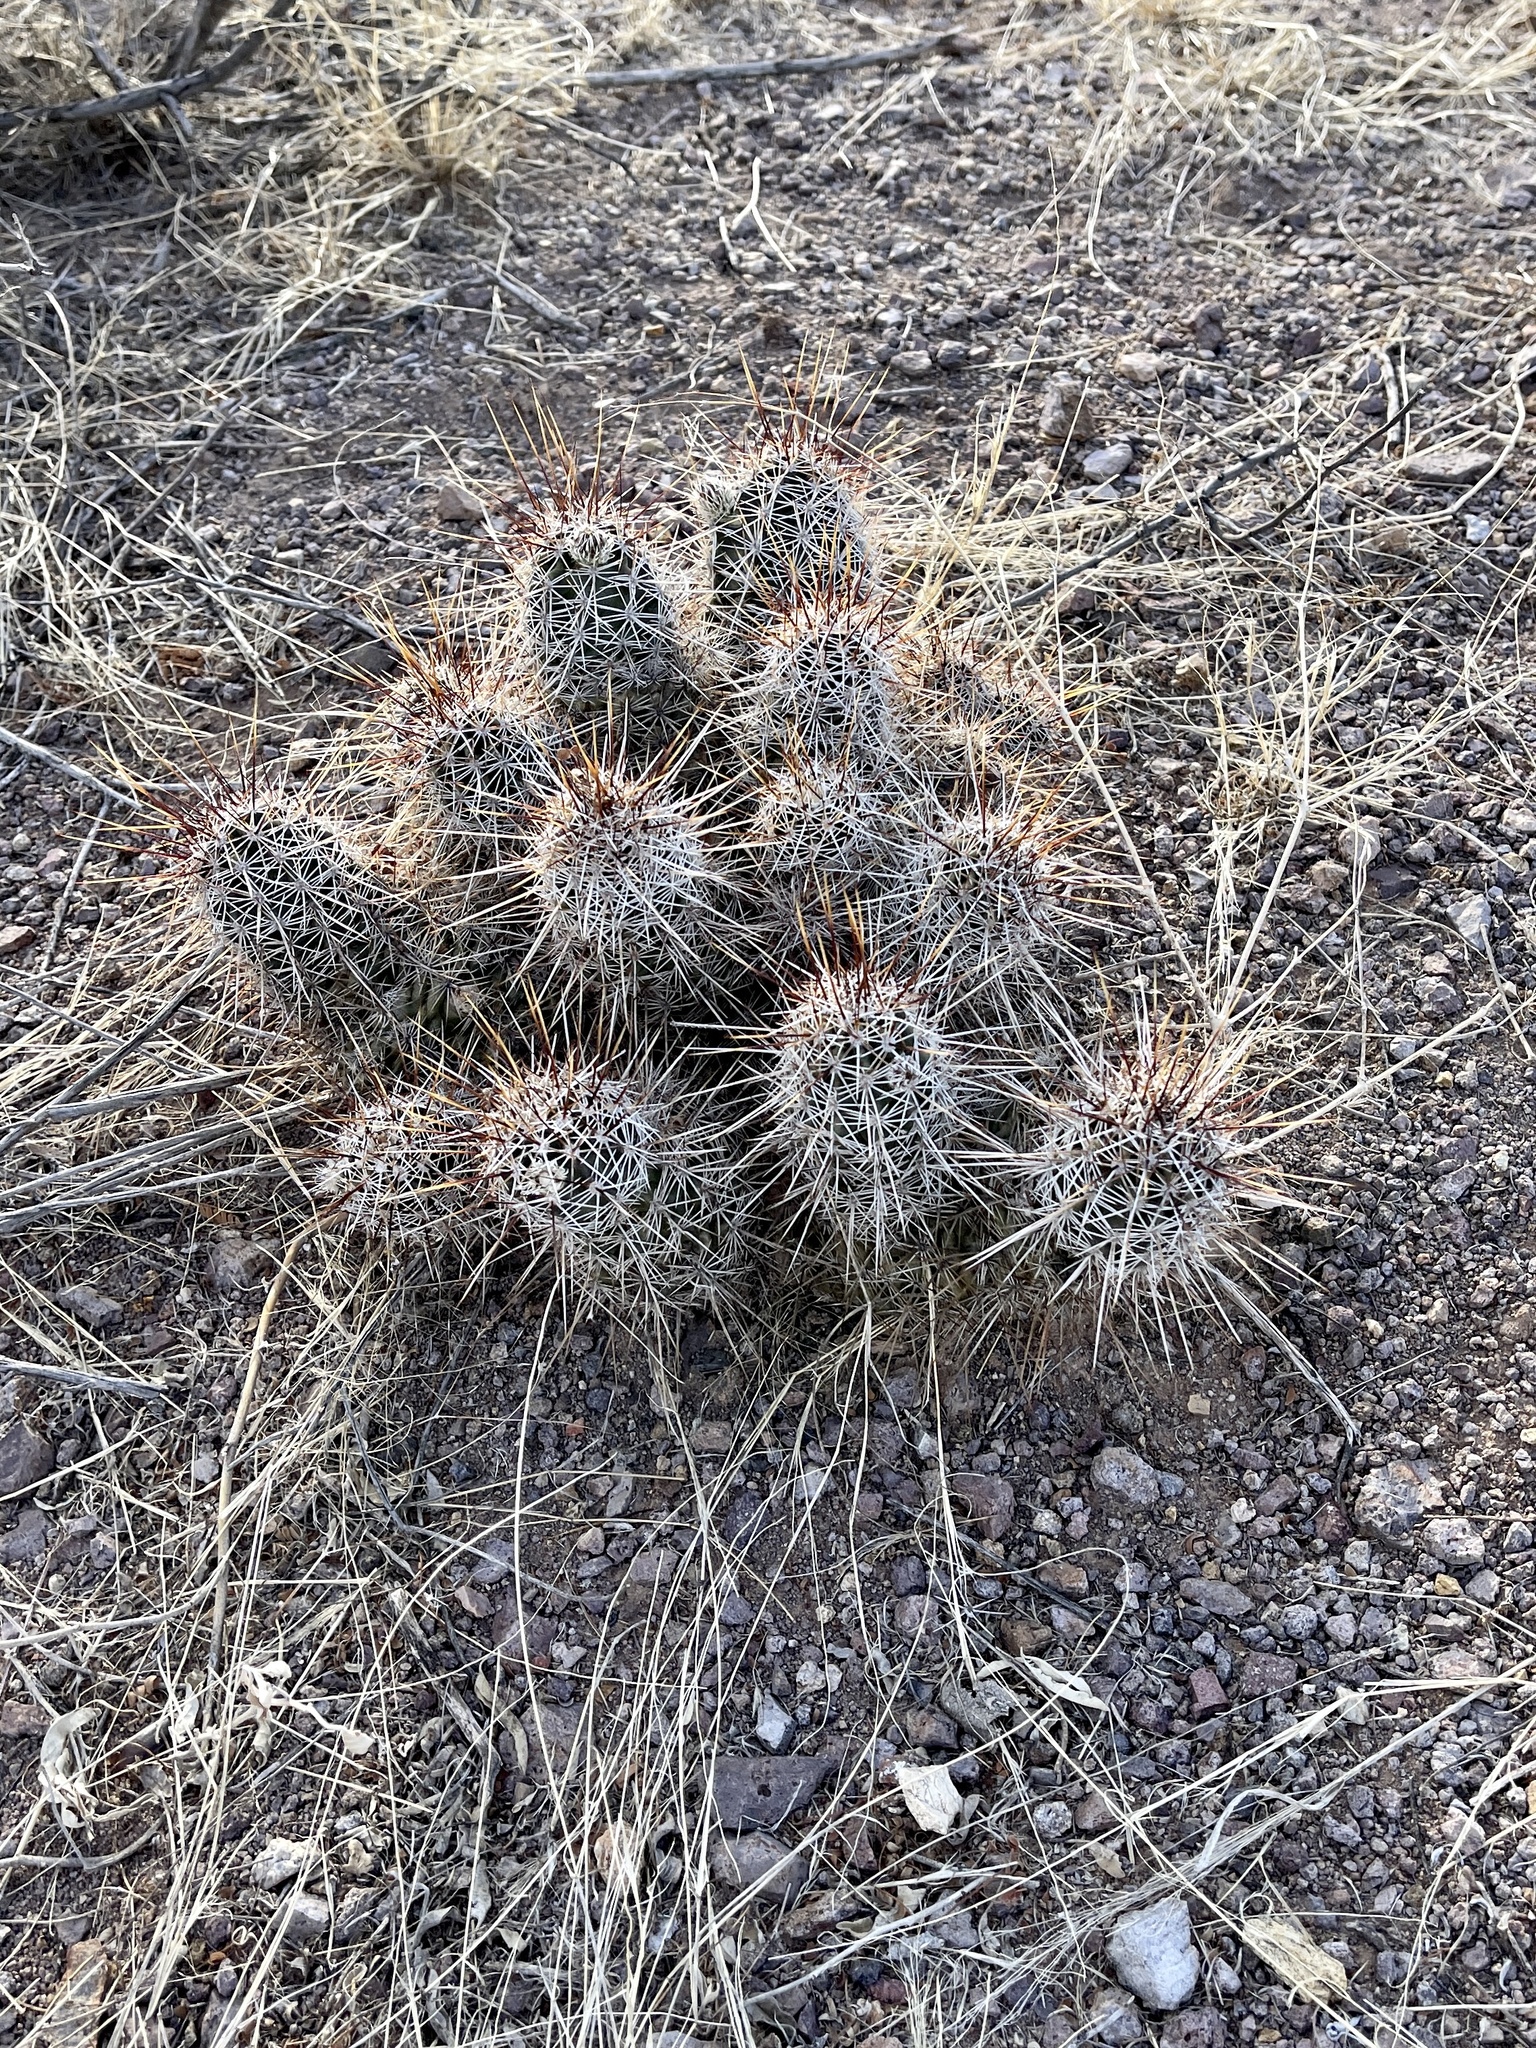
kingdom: Plantae
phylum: Tracheophyta
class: Magnoliopsida
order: Caryophyllales
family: Cactaceae
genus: Echinocereus
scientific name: Echinocereus fendleri
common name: Fendler's hedgehog cactus
